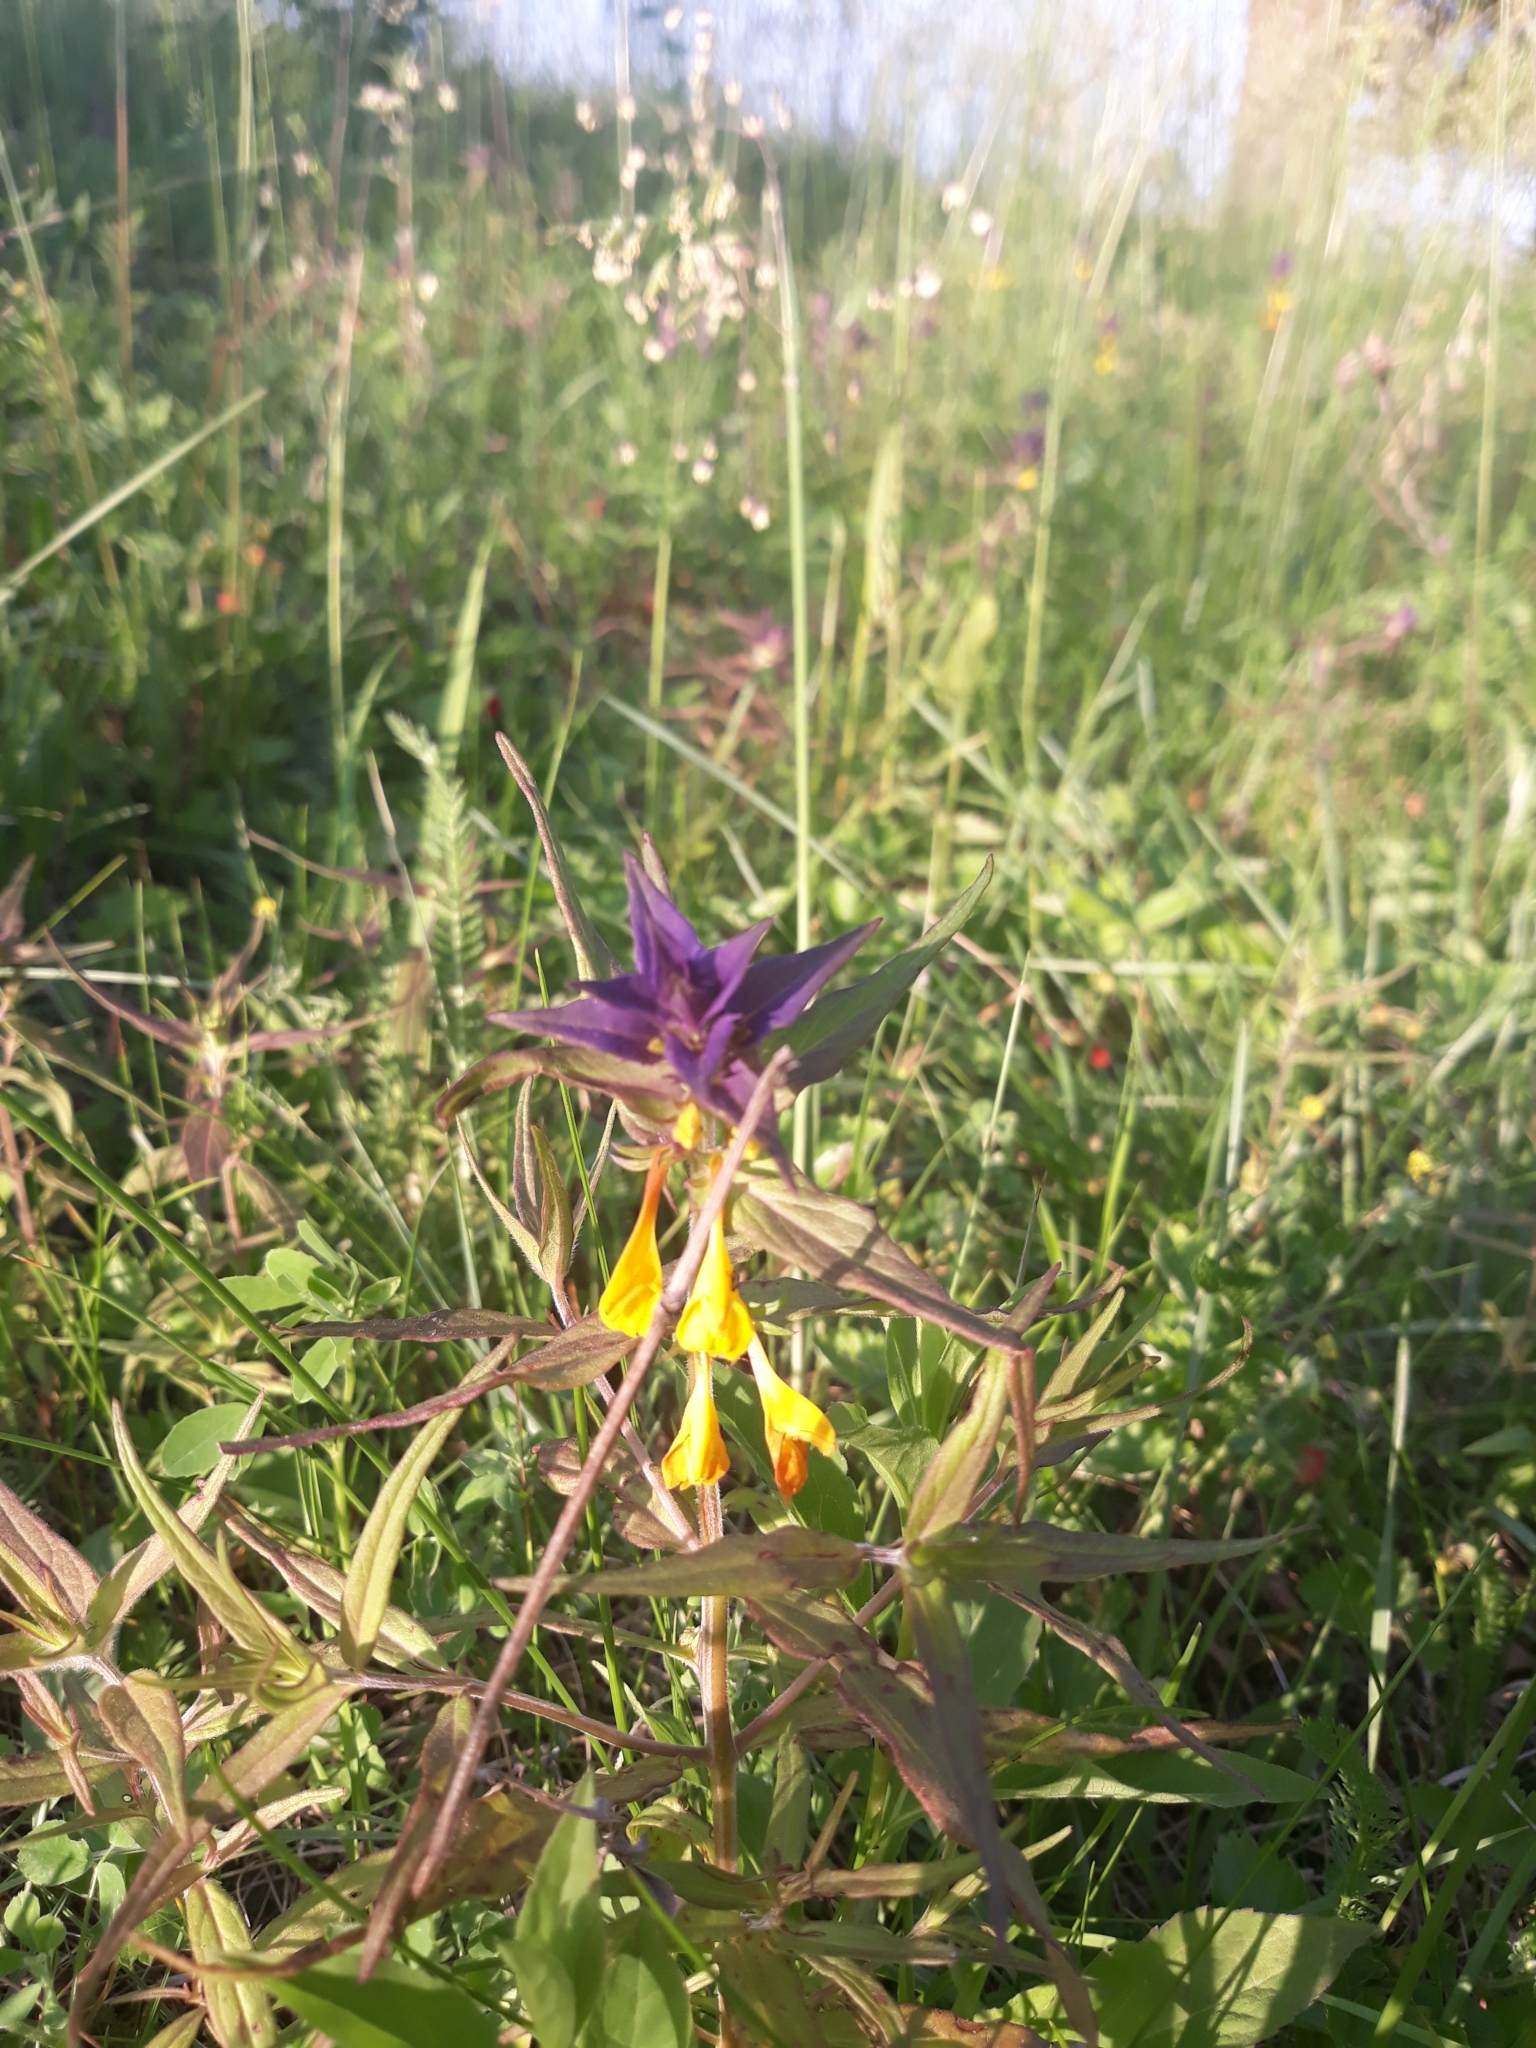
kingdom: Plantae
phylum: Tracheophyta
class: Magnoliopsida
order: Lamiales
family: Orobanchaceae
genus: Melampyrum
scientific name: Melampyrum nemorosum
